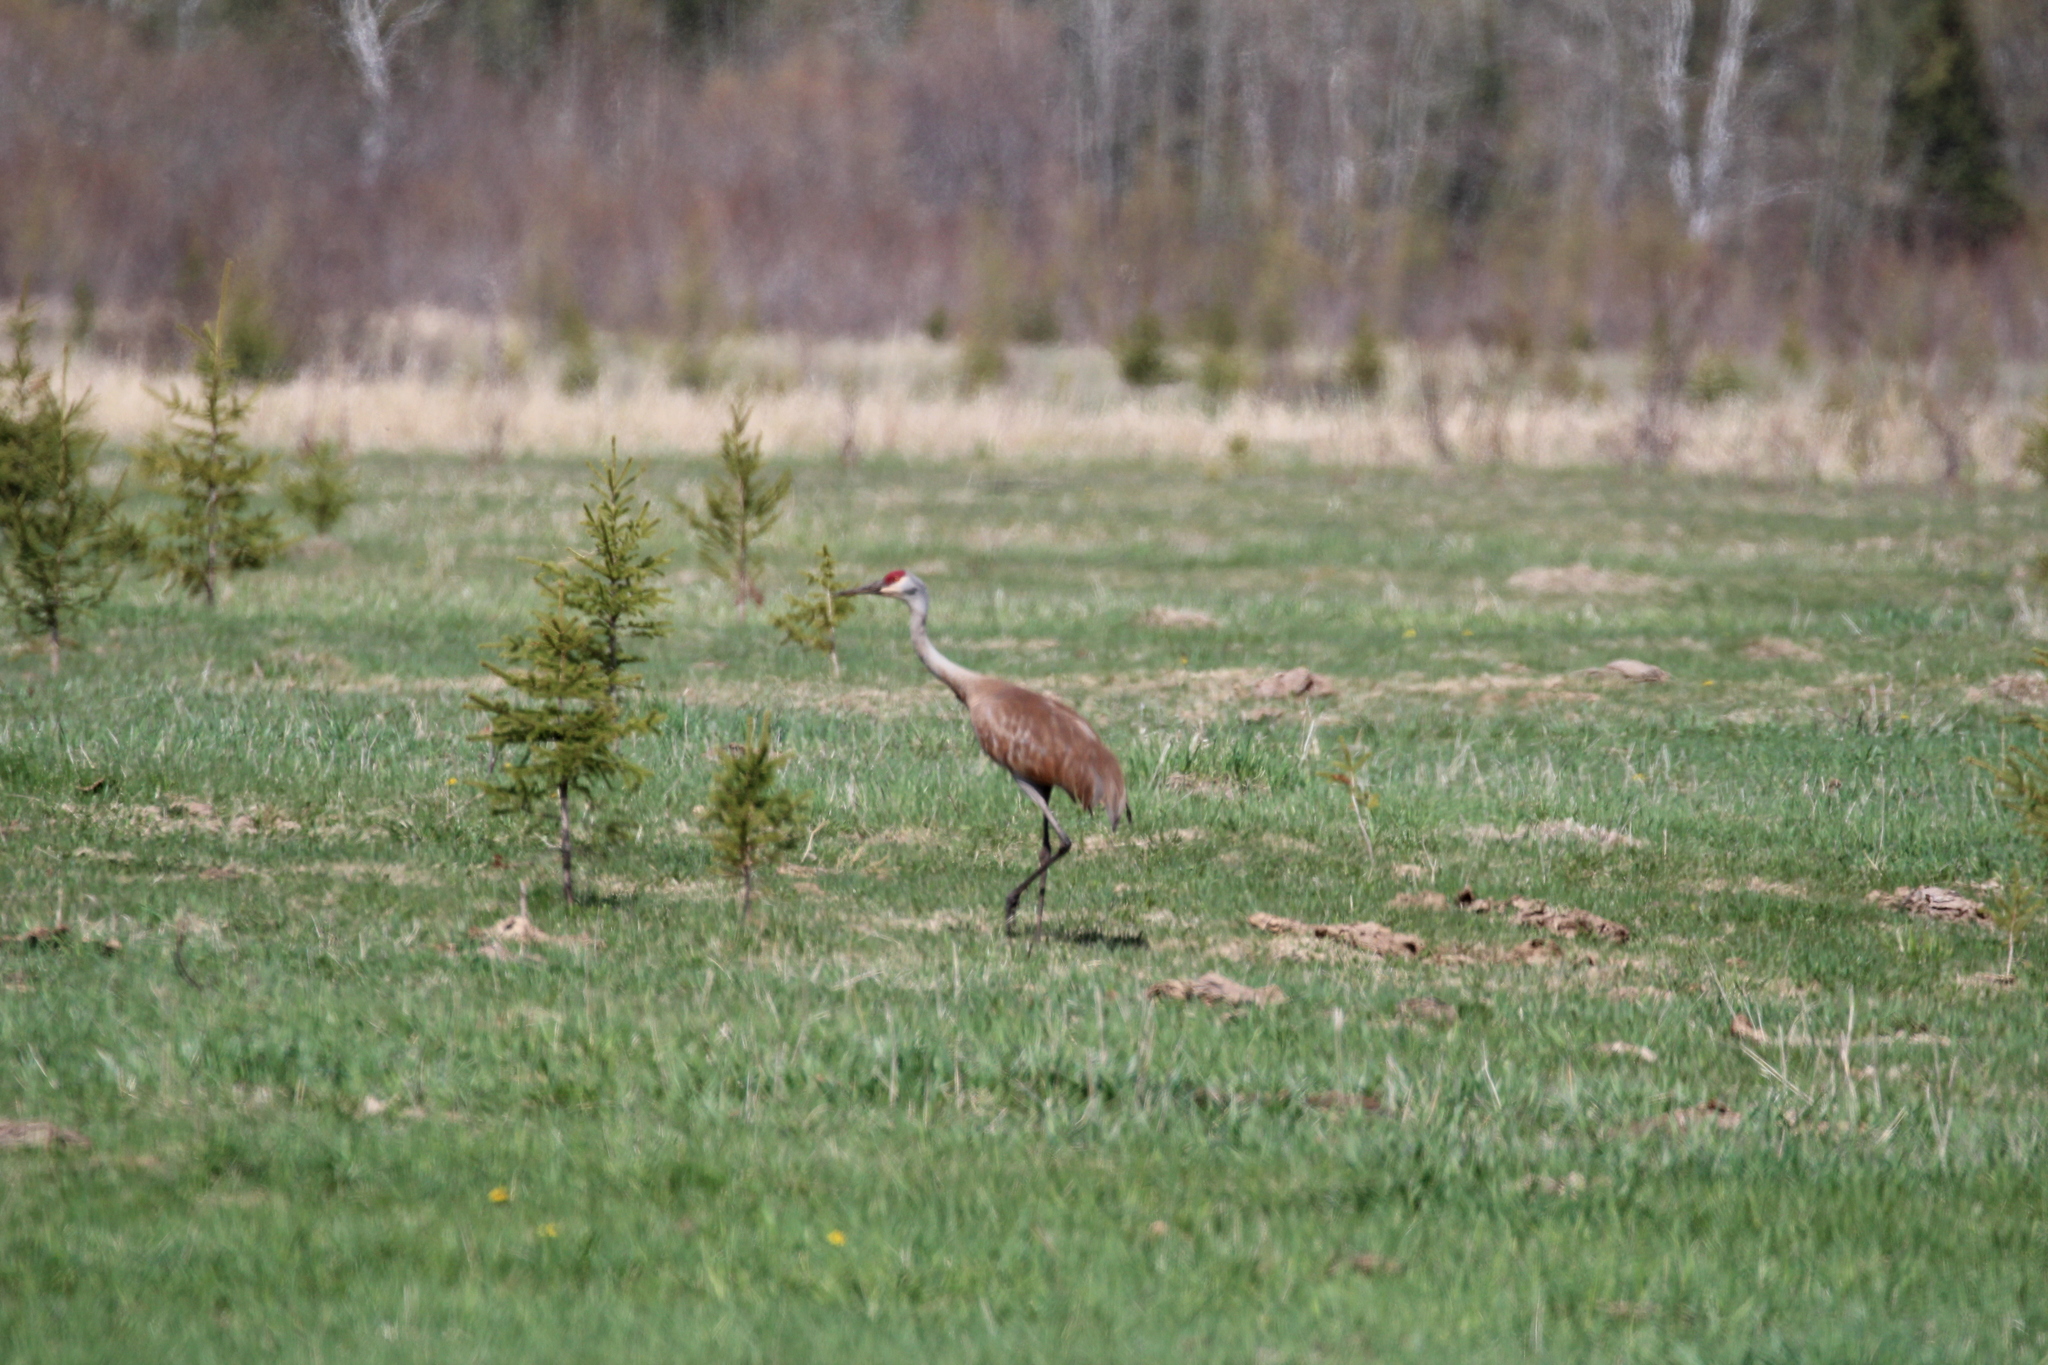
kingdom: Animalia
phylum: Chordata
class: Aves
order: Gruiformes
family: Gruidae
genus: Grus
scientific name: Grus canadensis
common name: Sandhill crane
